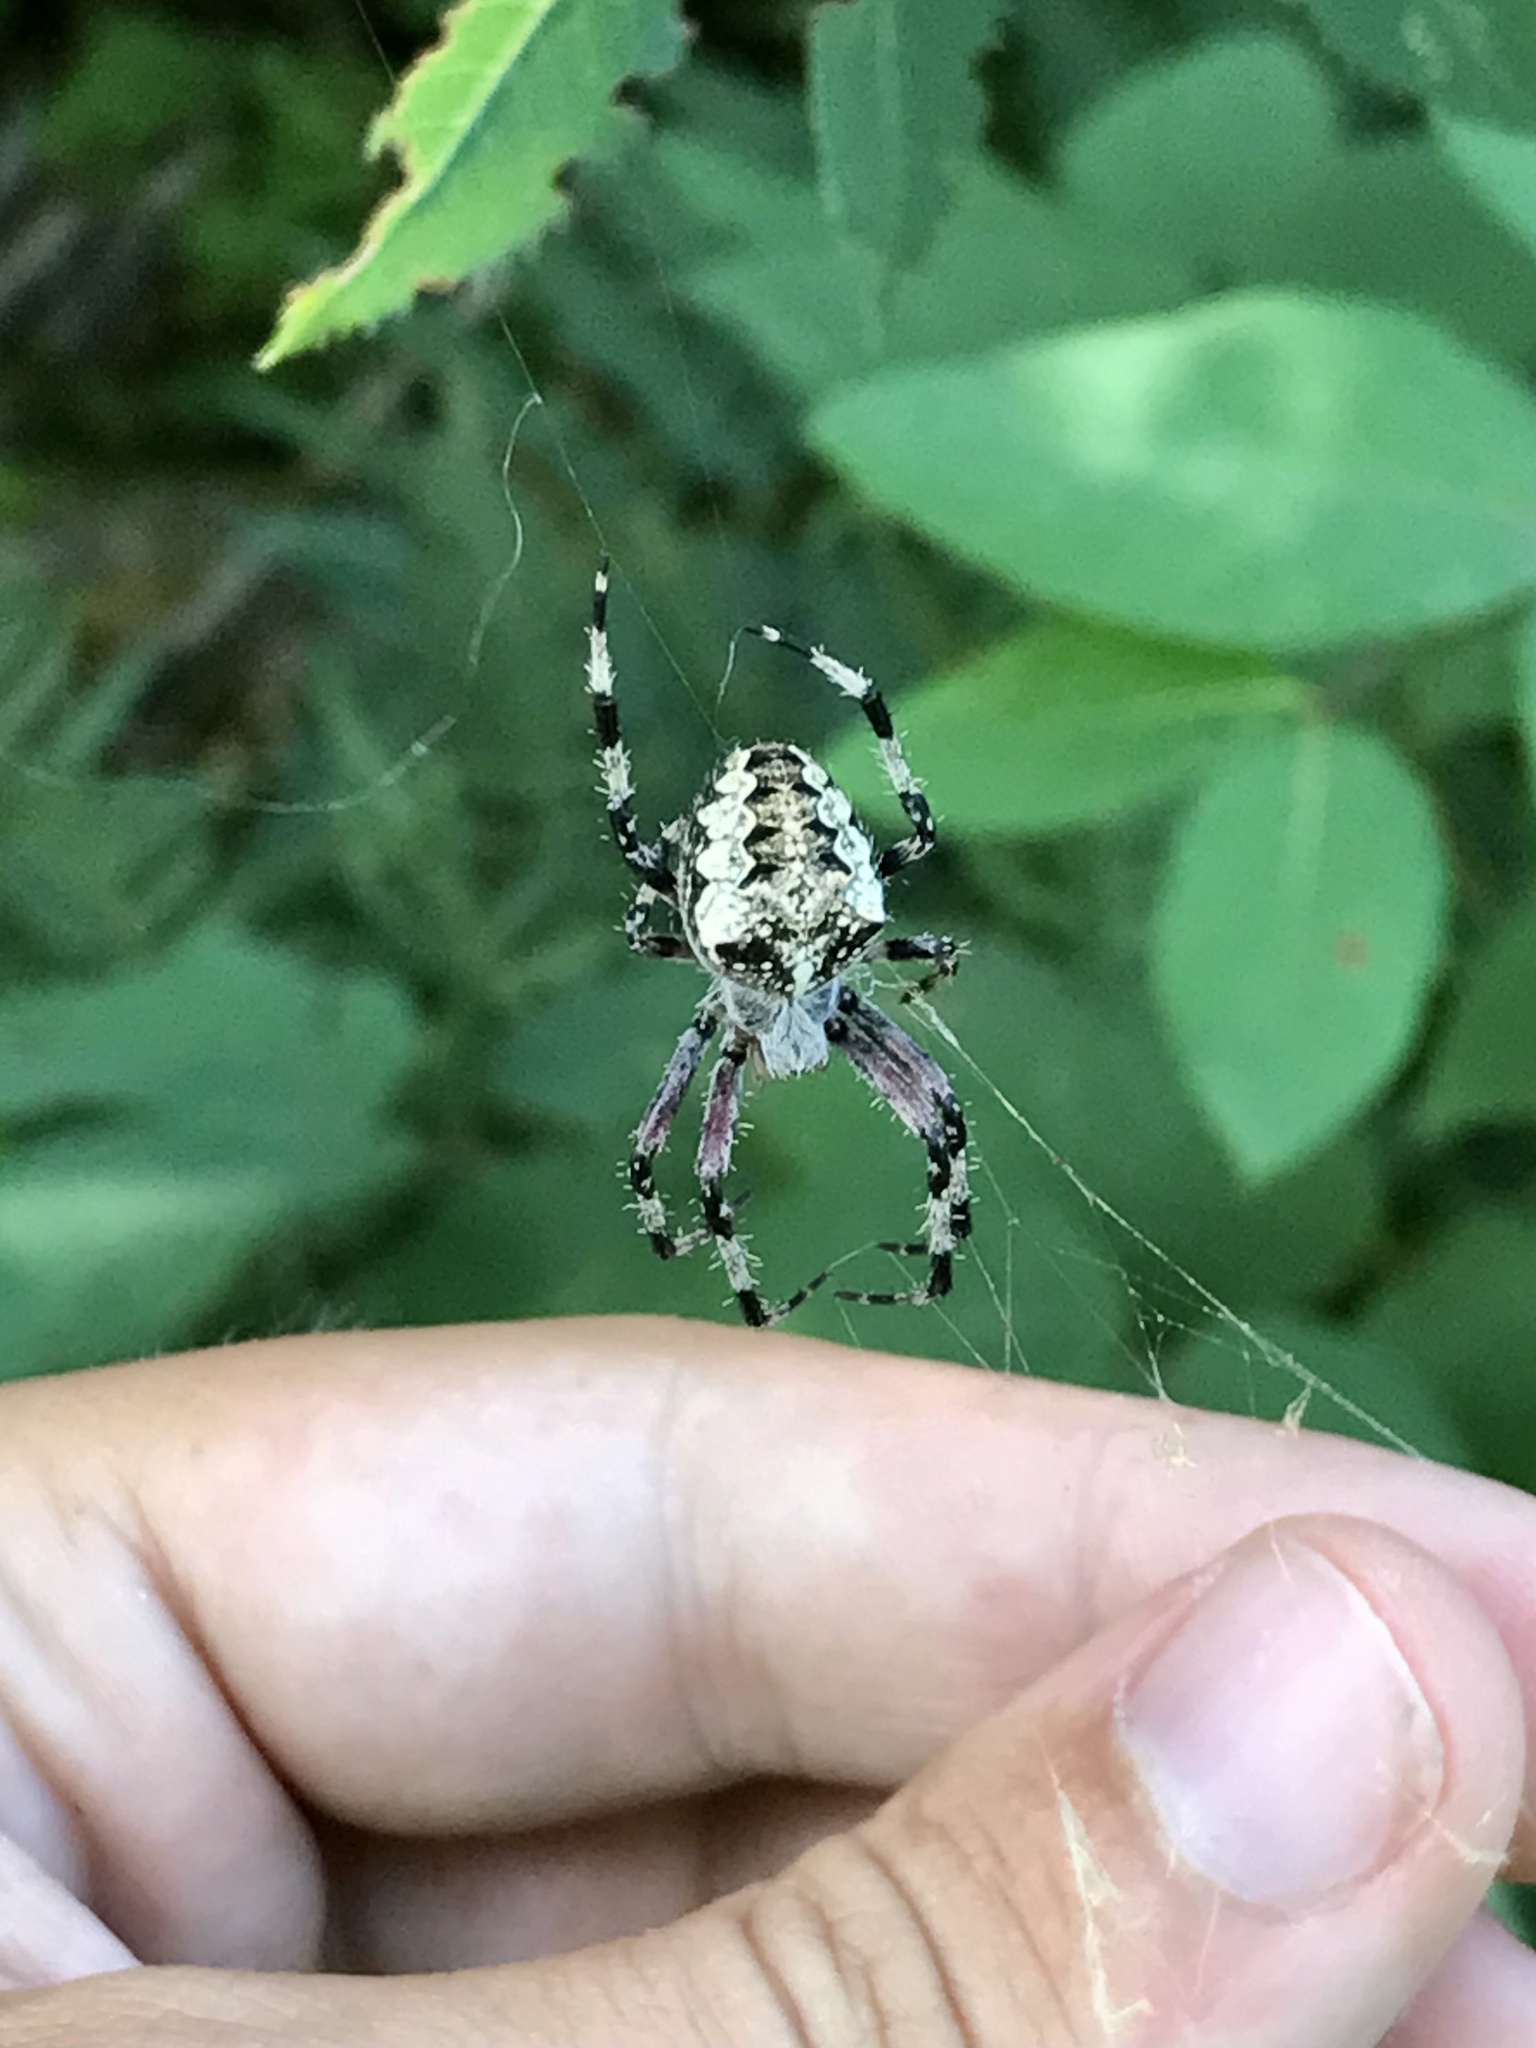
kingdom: Animalia
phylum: Arthropoda
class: Arachnida
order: Araneae
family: Araneidae
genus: Araneus
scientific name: Araneus nordmanni
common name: Nordmann's orbweaver
